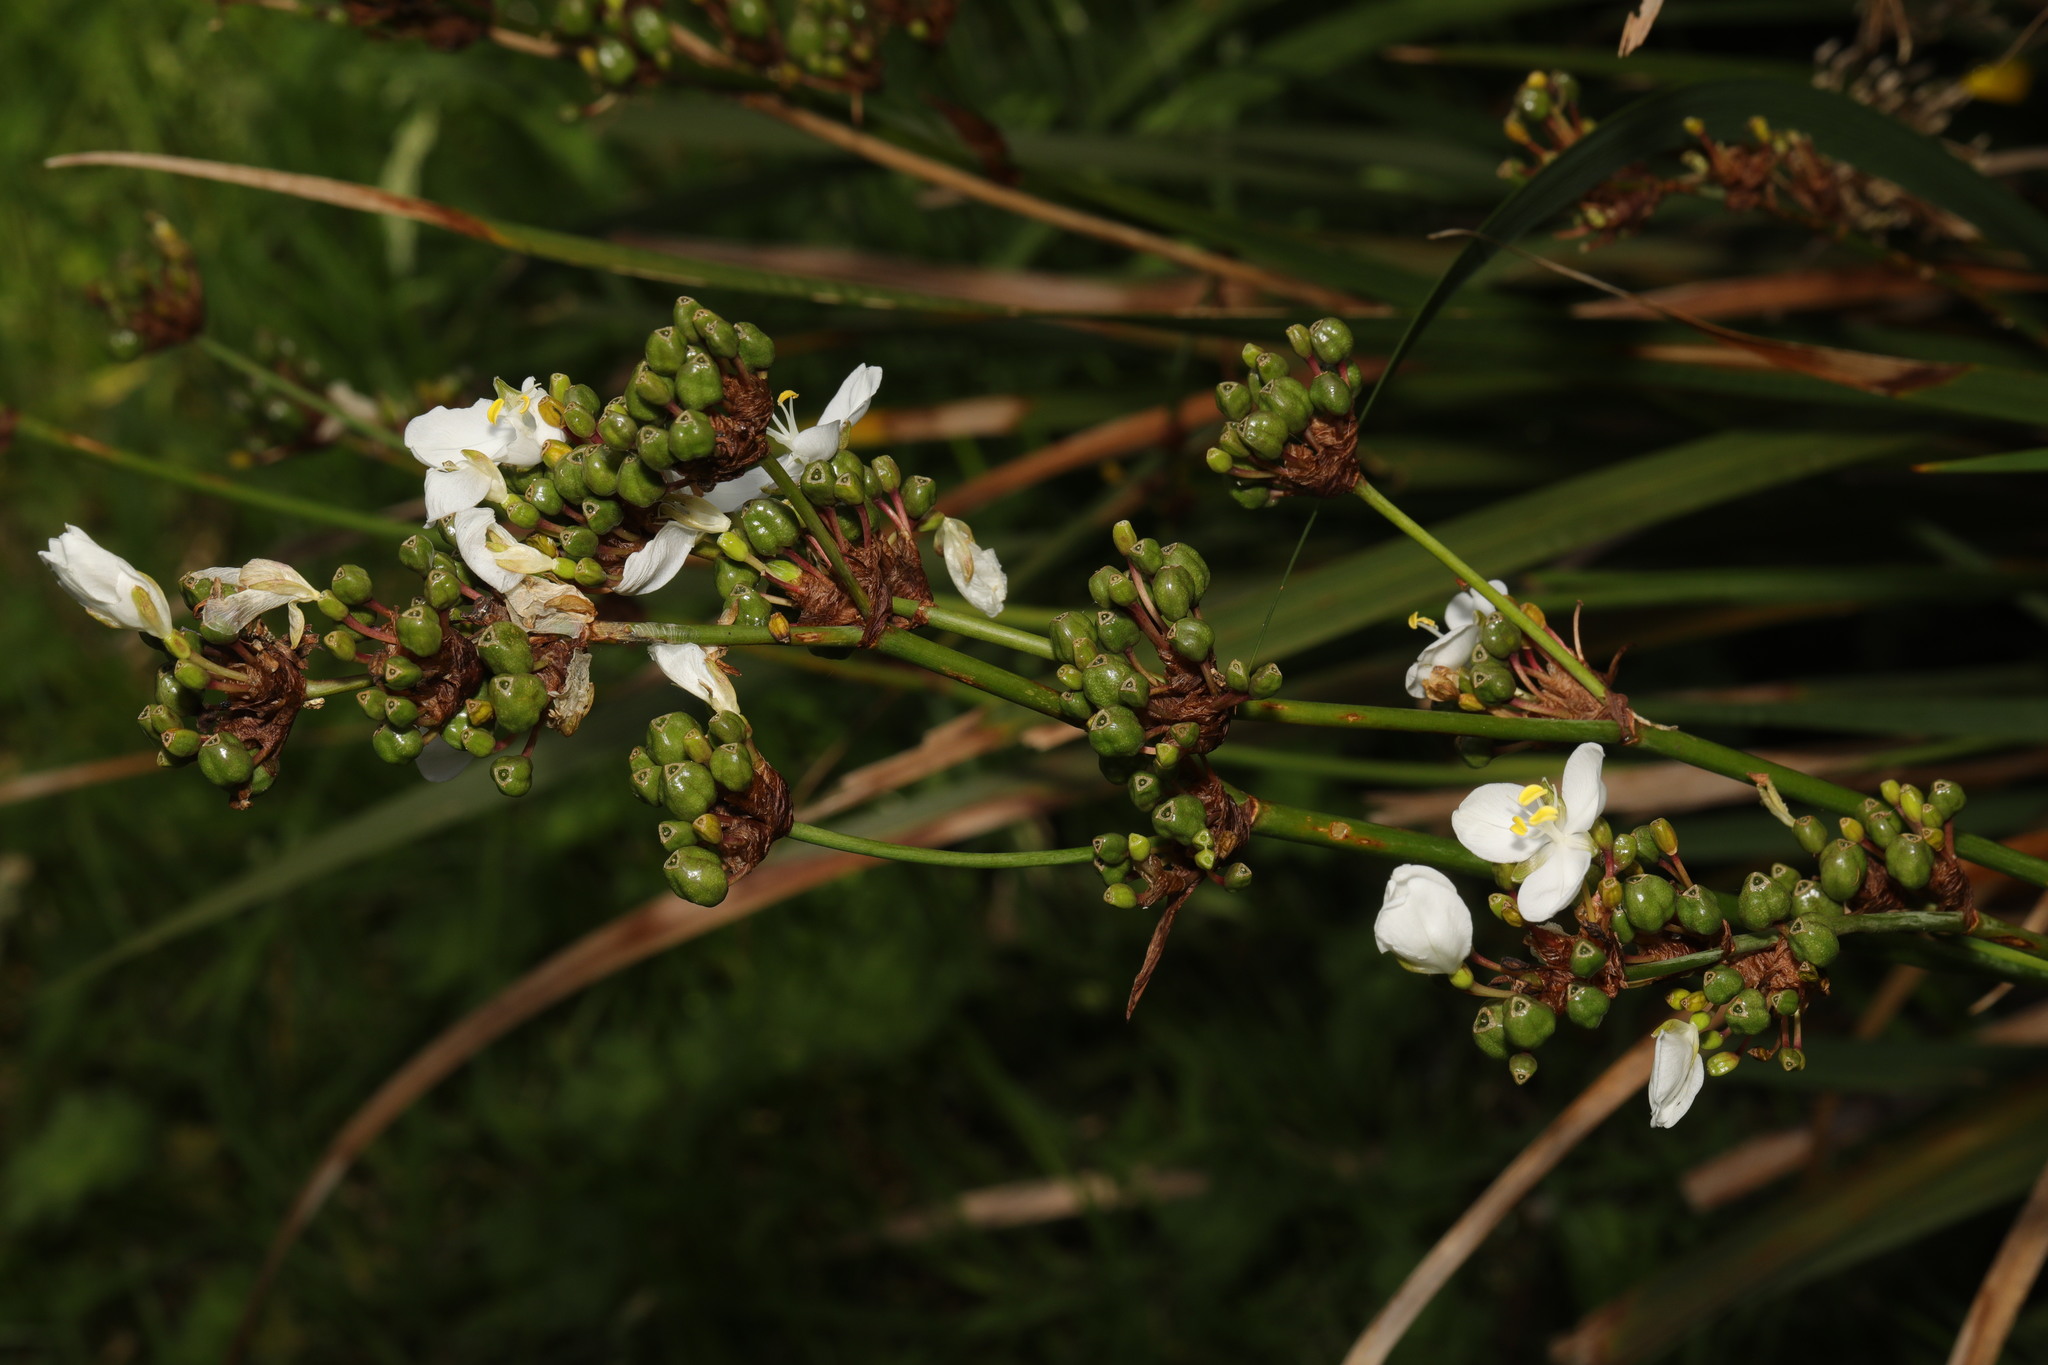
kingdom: Plantae
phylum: Tracheophyta
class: Liliopsida
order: Asparagales
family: Iridaceae
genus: Libertia
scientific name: Libertia chilensis
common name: Satin flower
